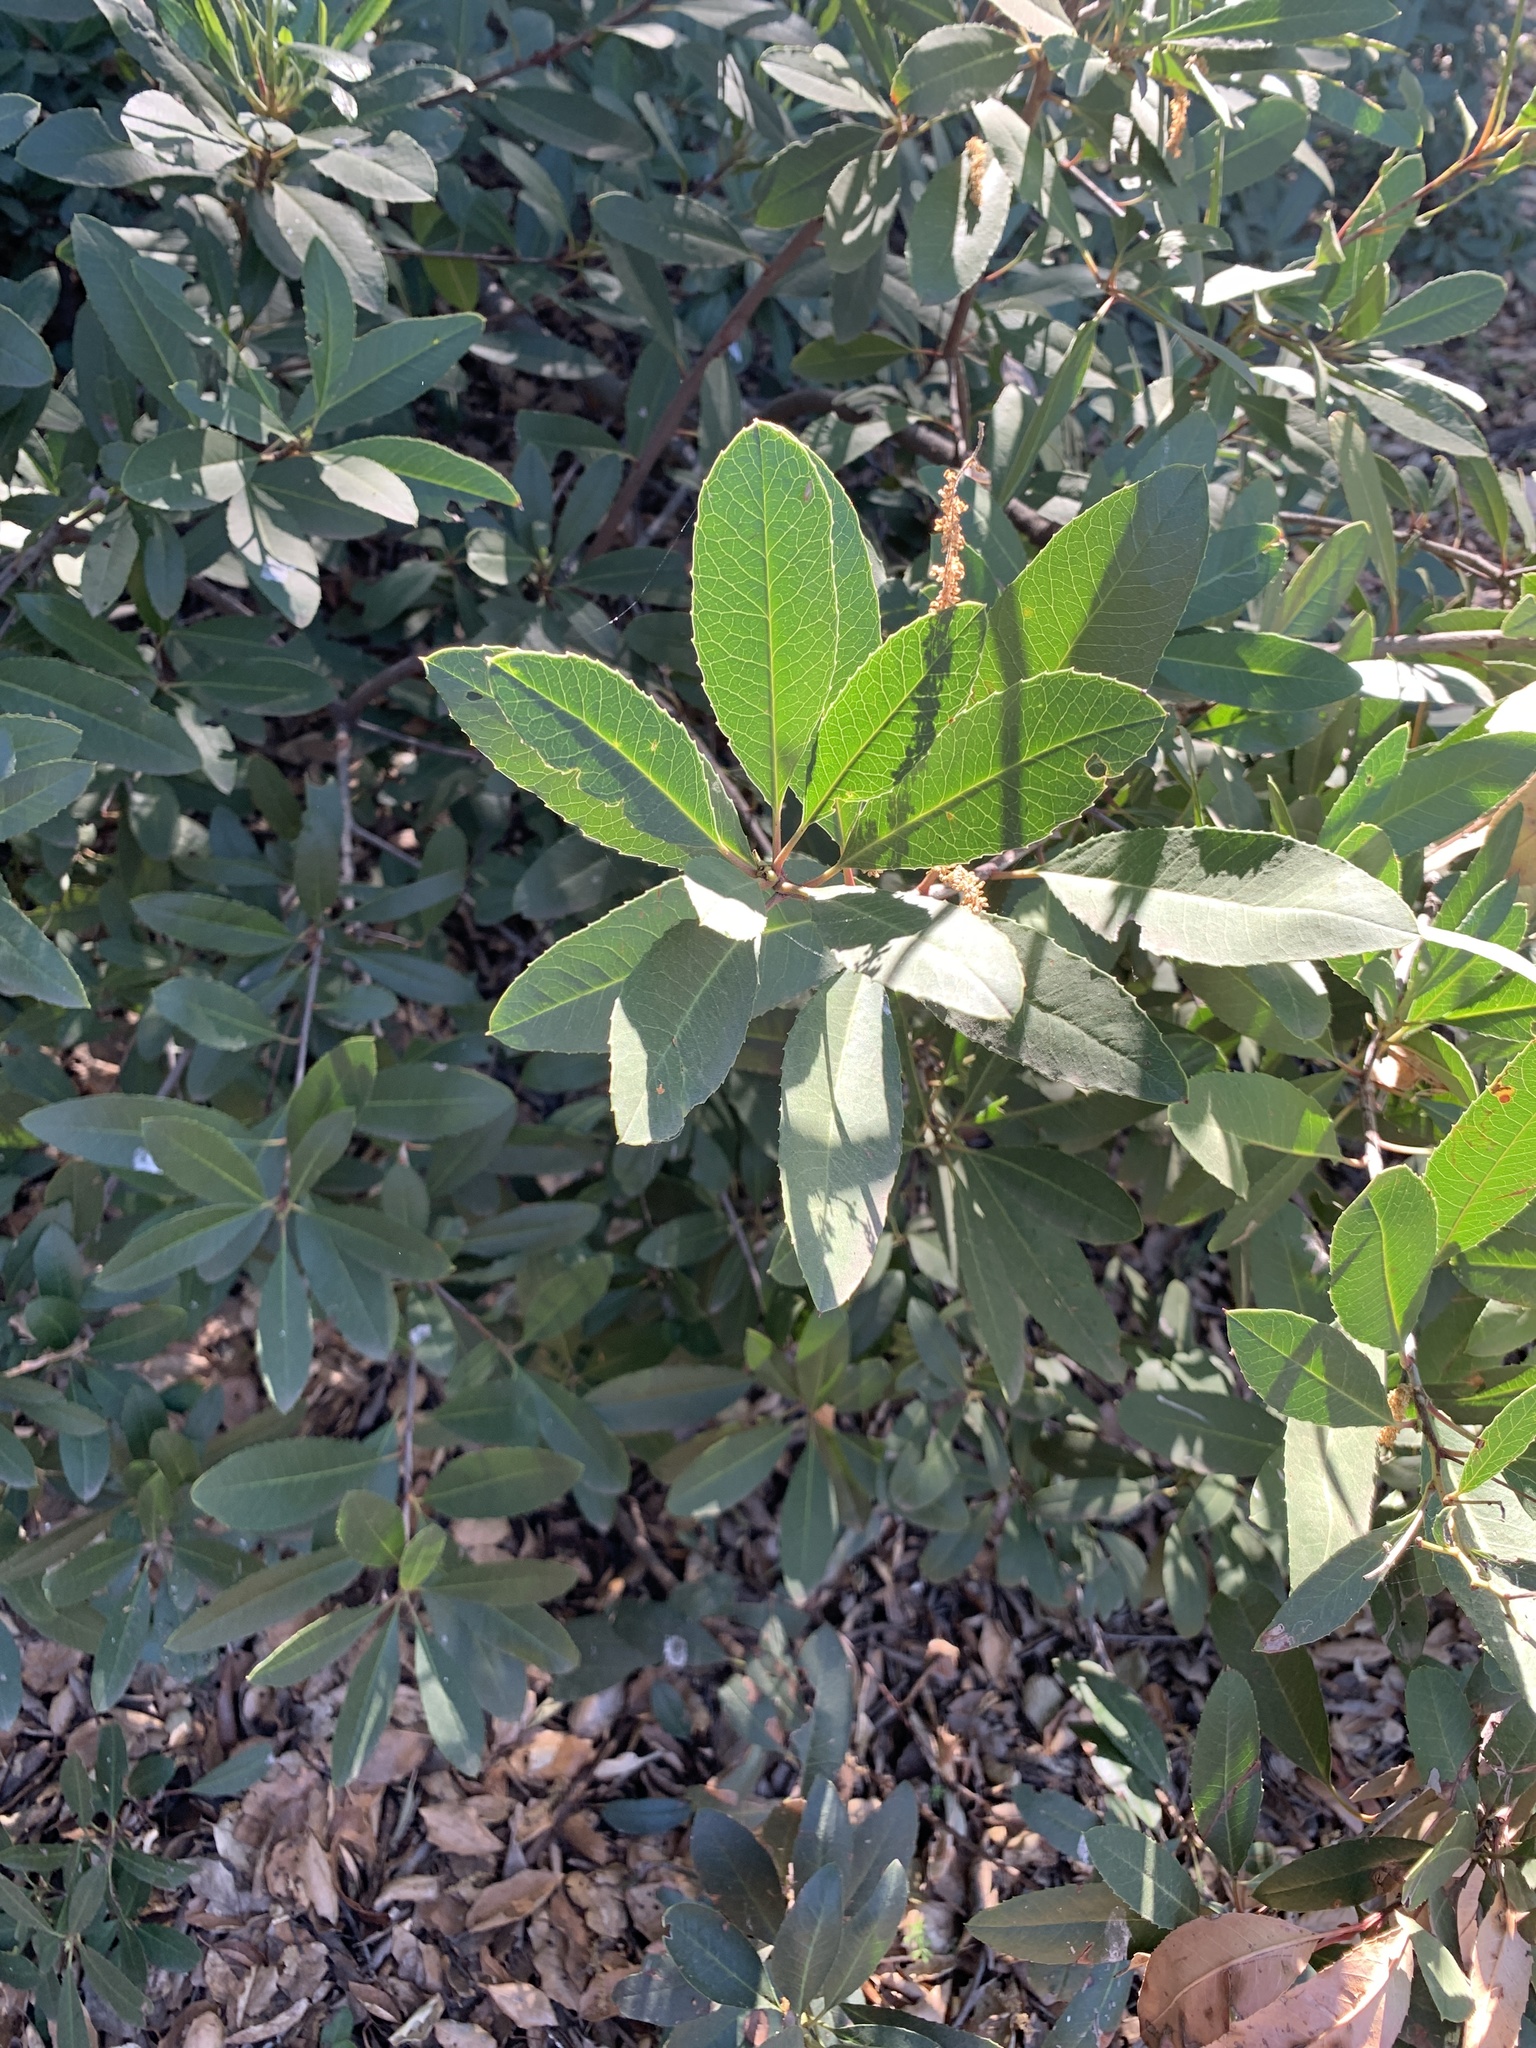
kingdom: Plantae
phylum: Tracheophyta
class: Magnoliopsida
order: Rosales
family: Rosaceae
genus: Heteromeles
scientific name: Heteromeles arbutifolia
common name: California-holly
